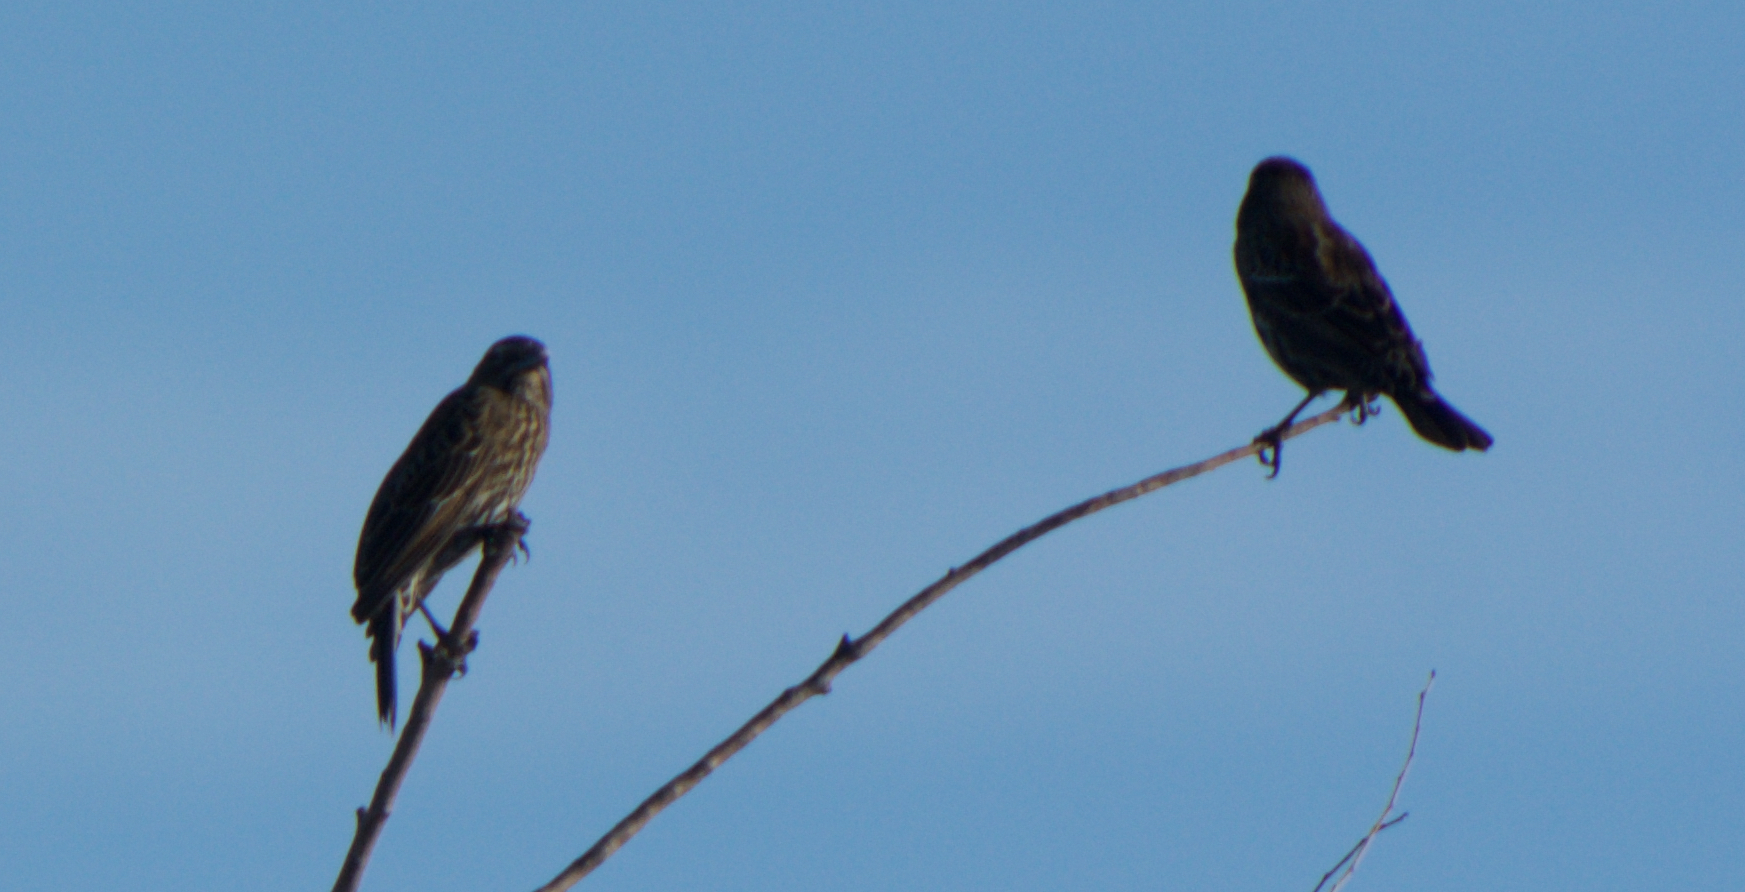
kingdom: Animalia
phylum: Chordata
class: Aves
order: Passeriformes
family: Icteridae
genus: Agelaius
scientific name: Agelaius phoeniceus
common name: Red-winged blackbird
